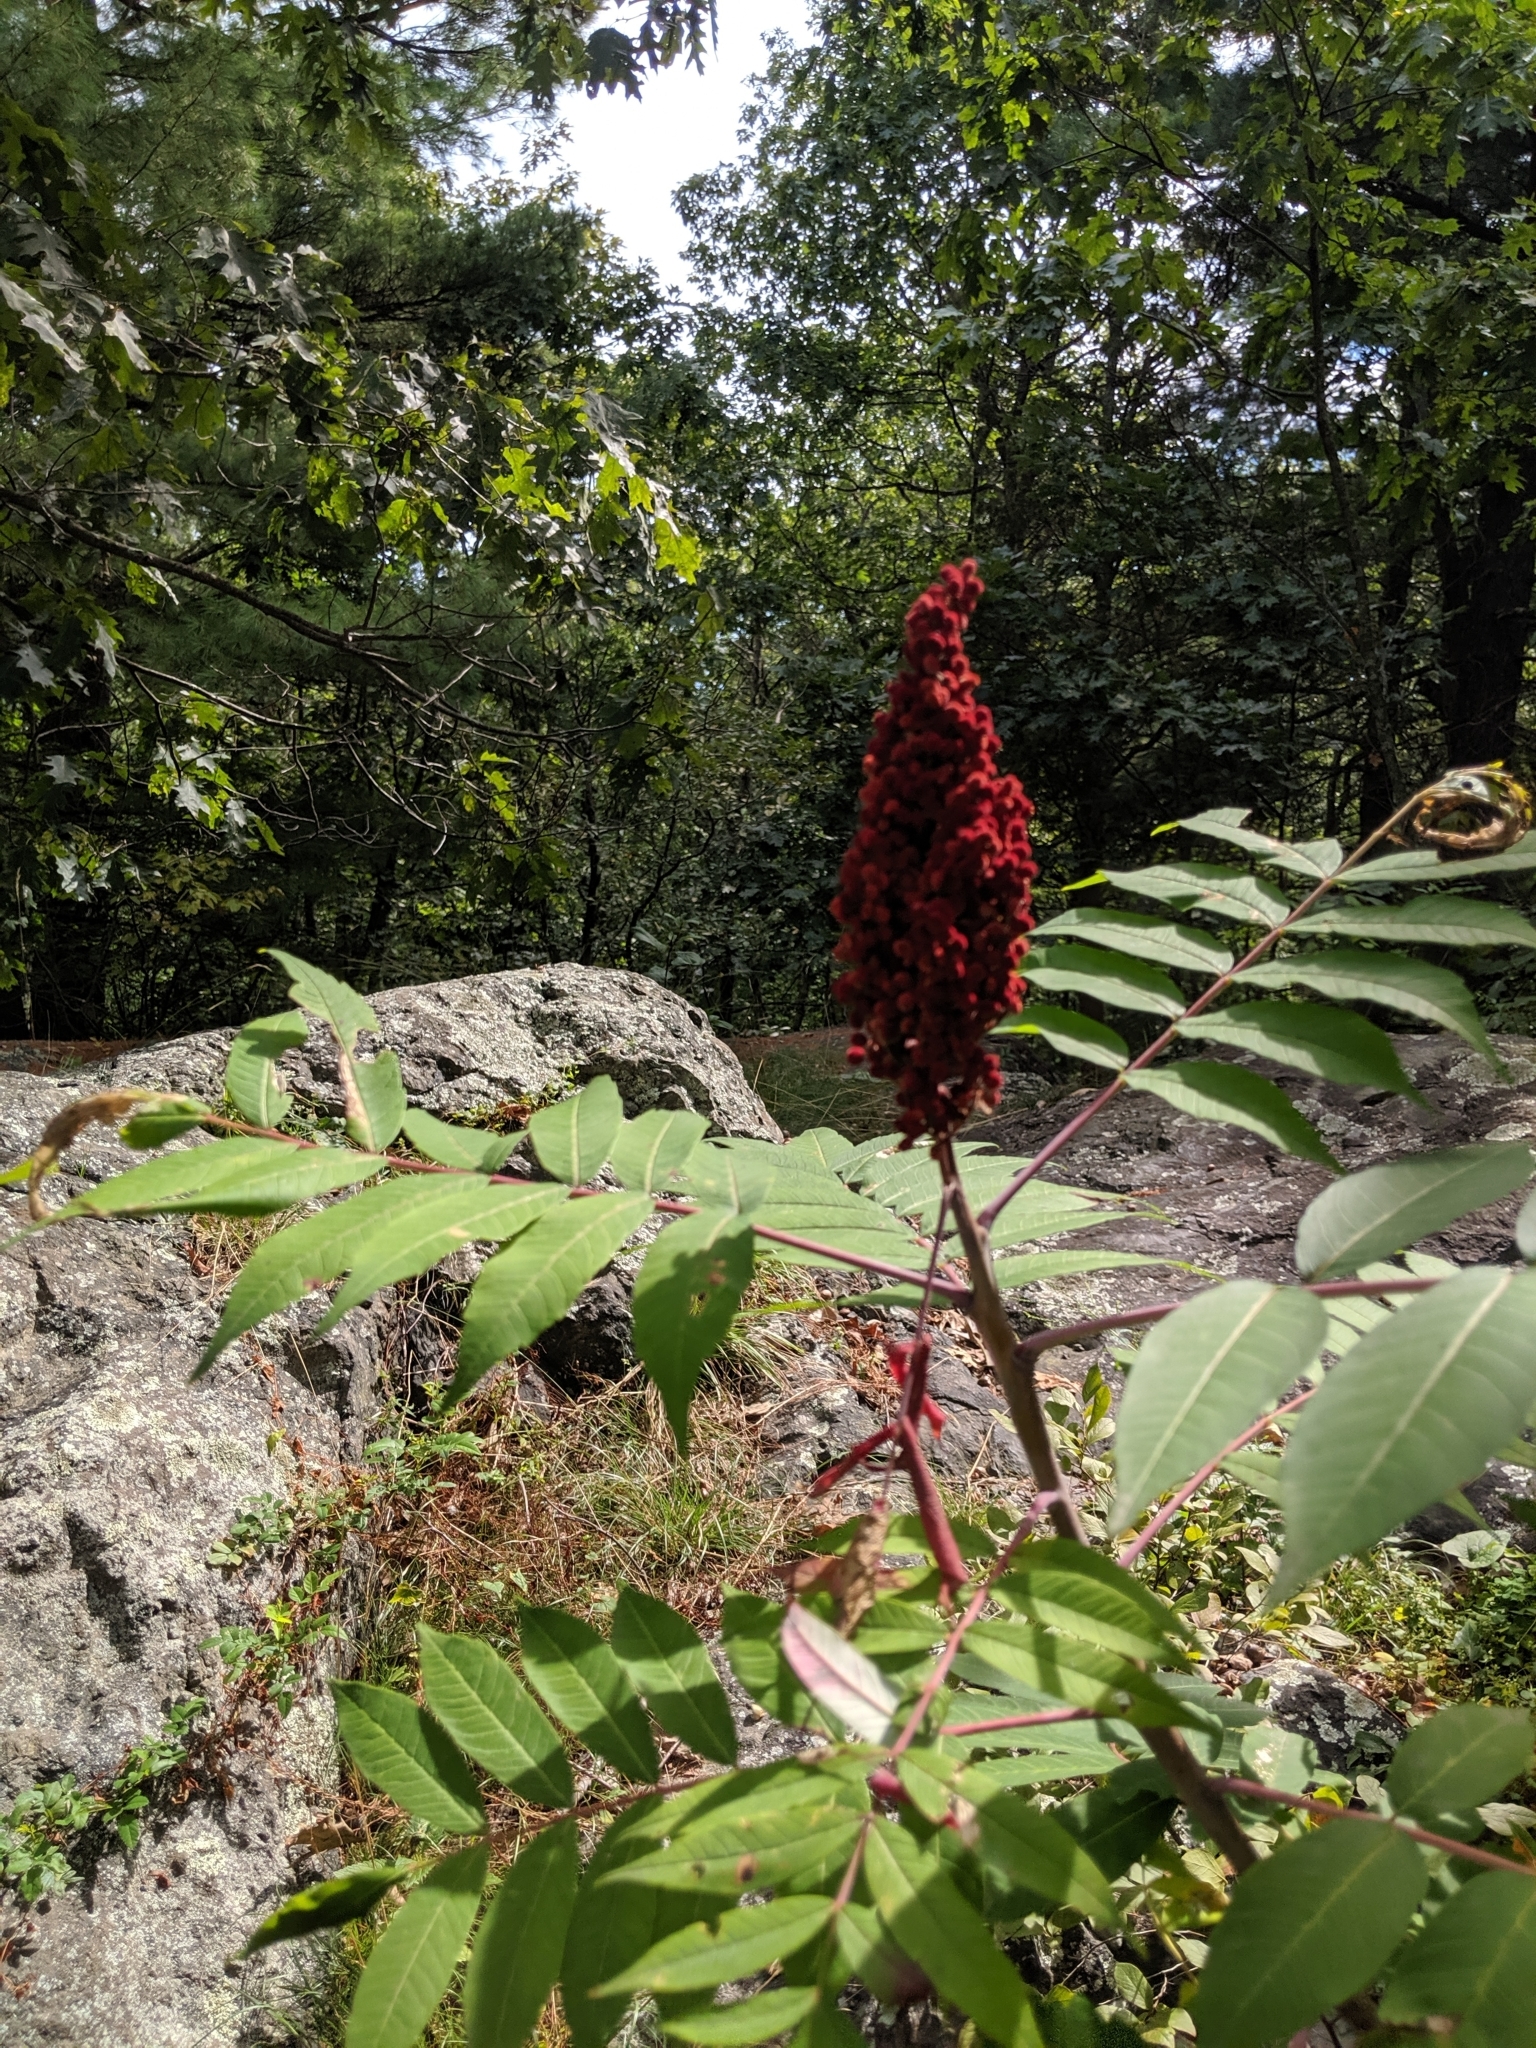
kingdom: Plantae
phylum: Tracheophyta
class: Magnoliopsida
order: Sapindales
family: Anacardiaceae
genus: Rhus
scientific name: Rhus glabra
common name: Scarlet sumac
